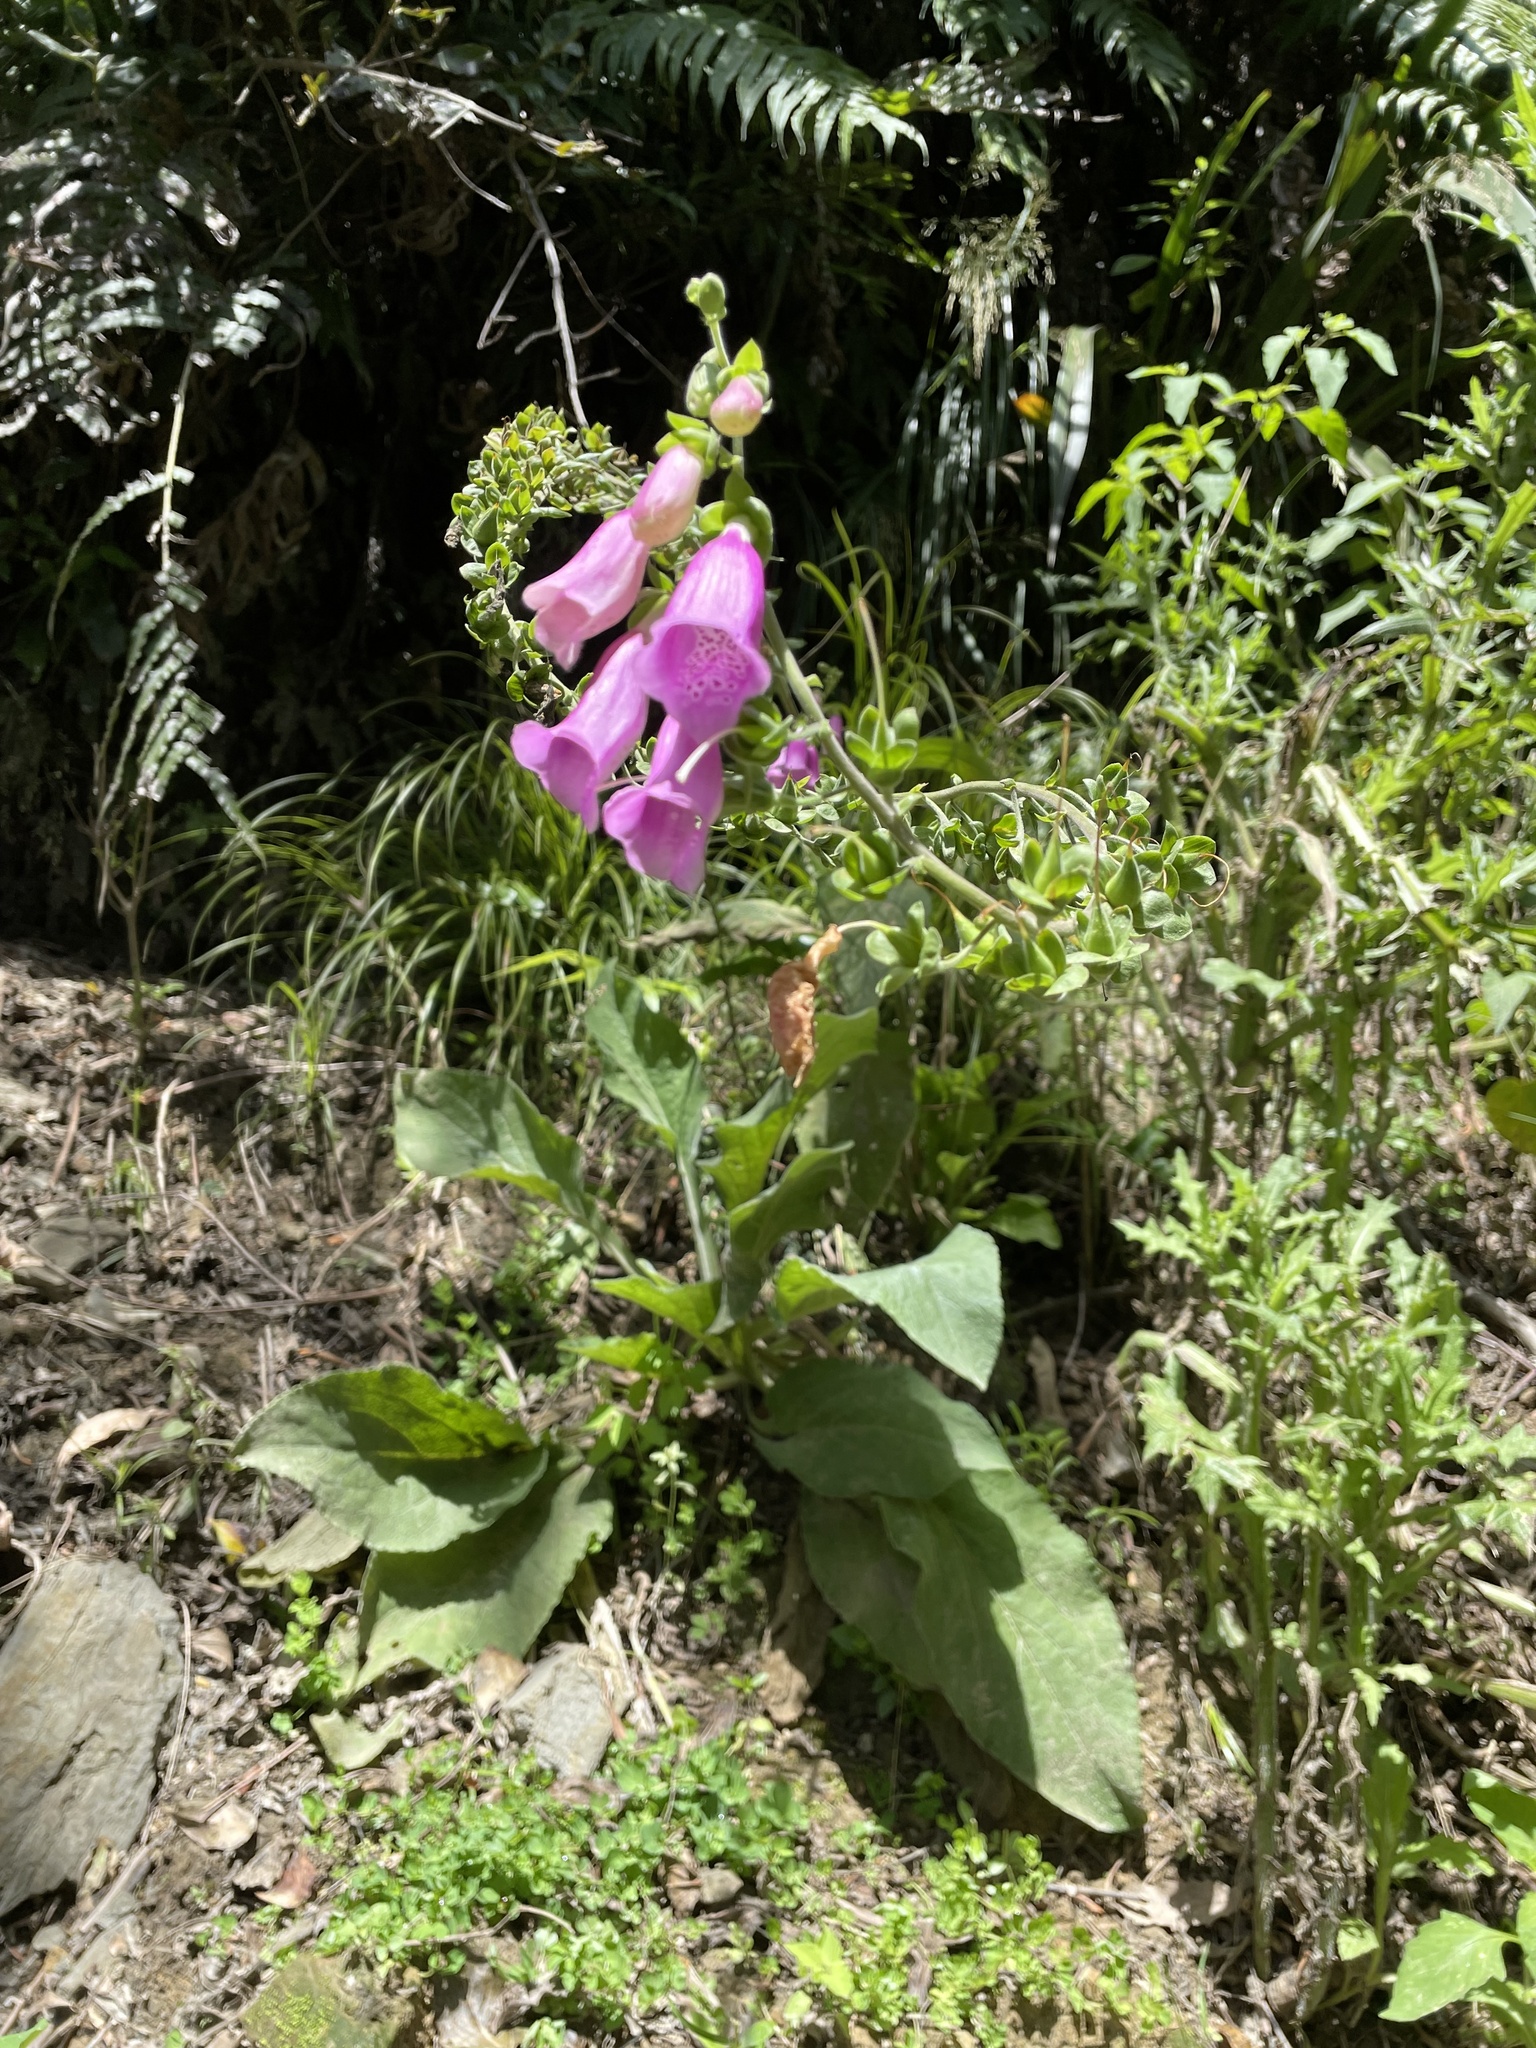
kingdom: Plantae
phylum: Tracheophyta
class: Magnoliopsida
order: Lamiales
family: Plantaginaceae
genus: Digitalis
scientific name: Digitalis purpurea
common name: Foxglove
